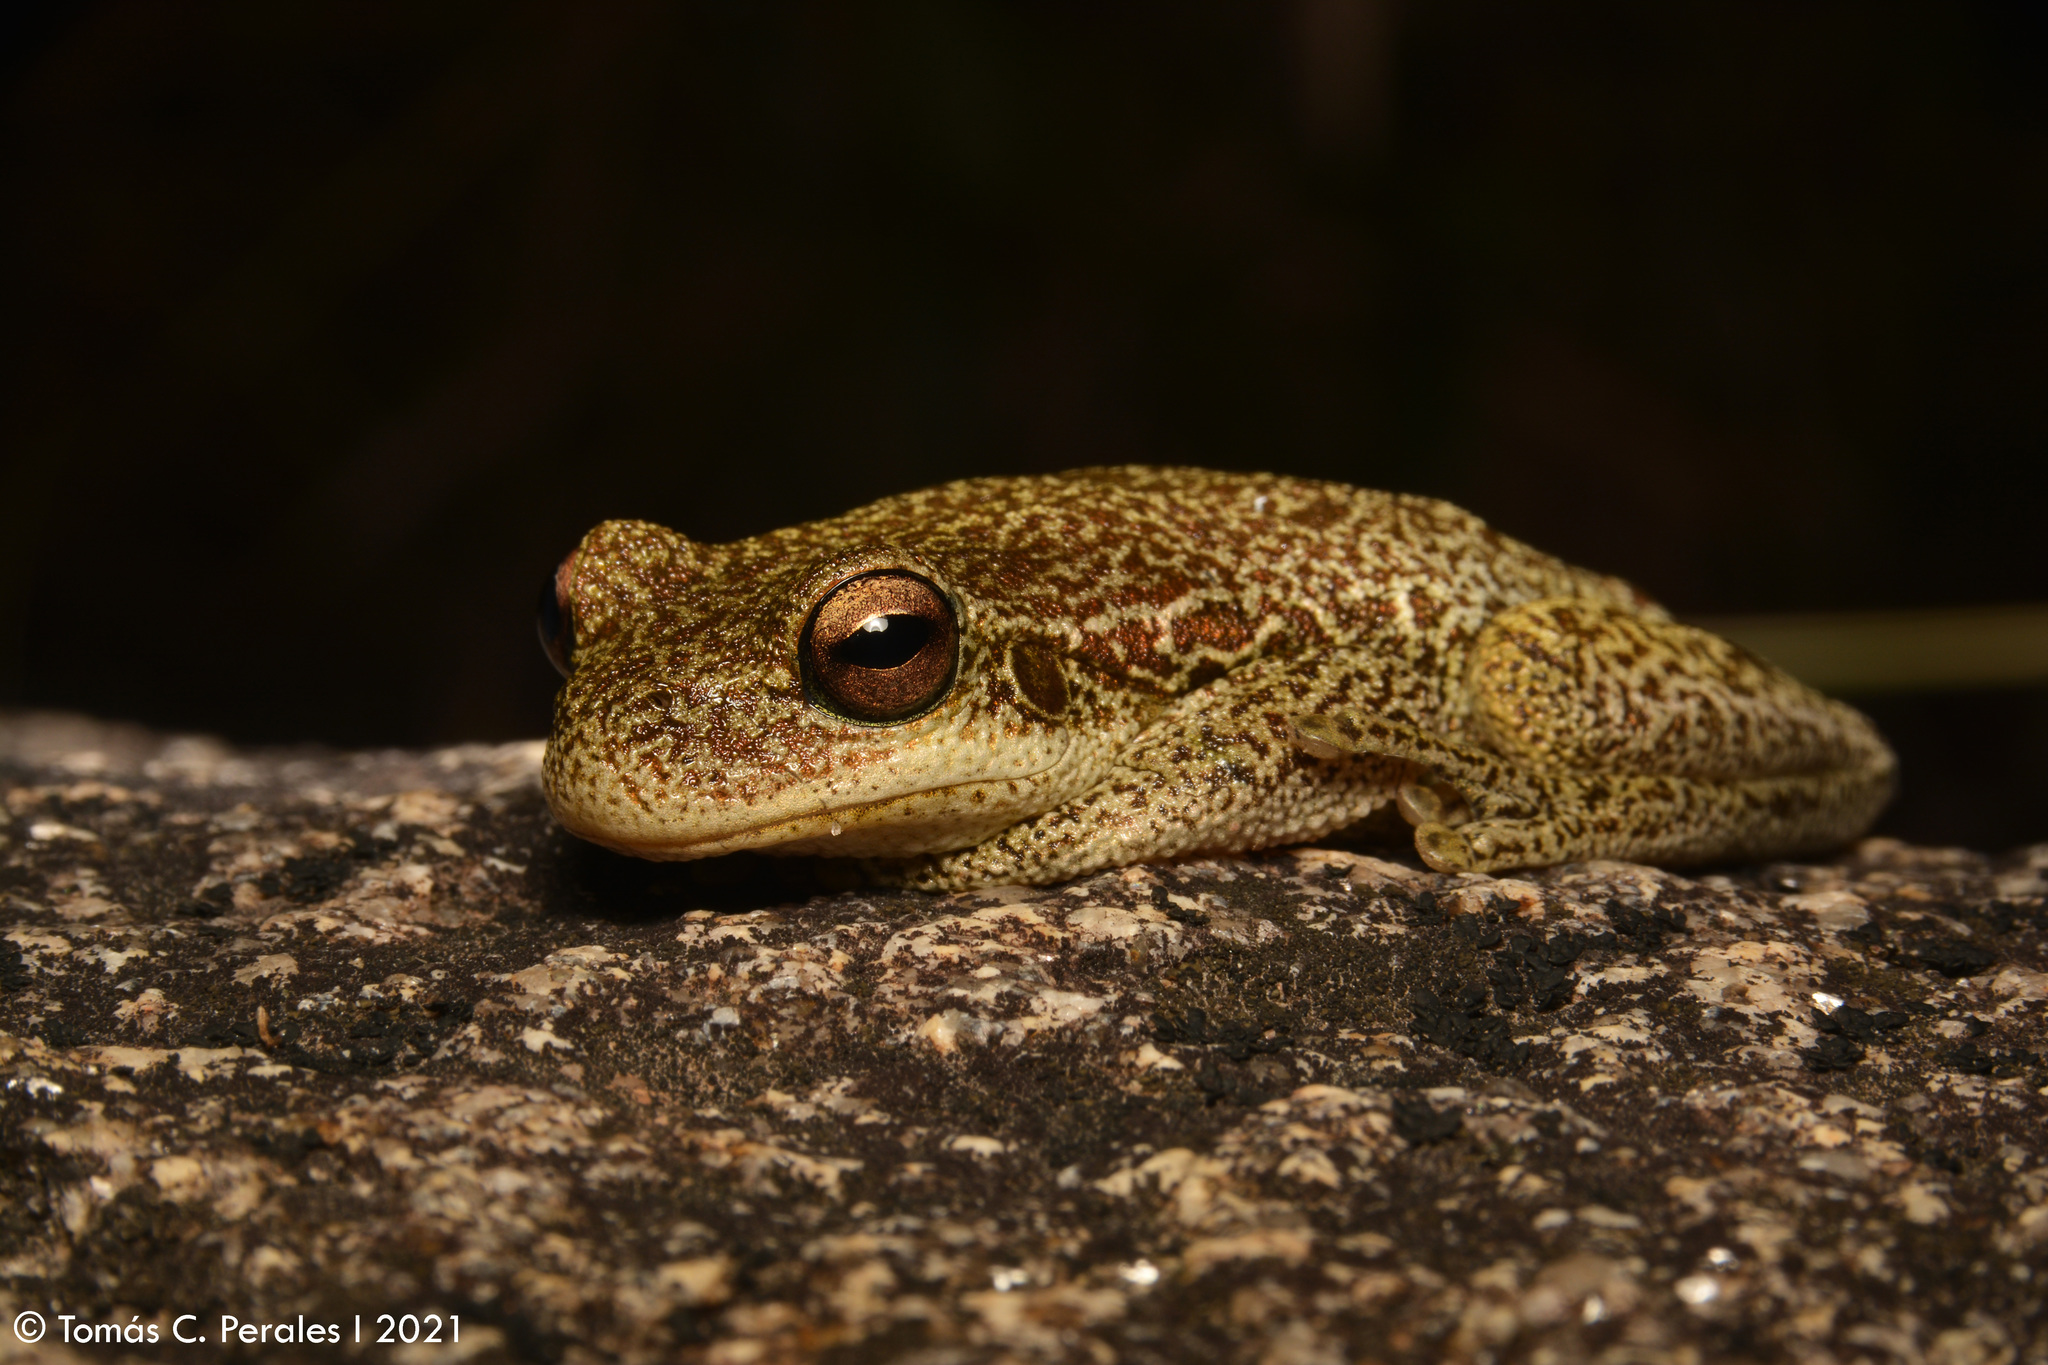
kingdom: Animalia
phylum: Chordata
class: Amphibia
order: Anura
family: Hylidae
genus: Boana
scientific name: Boana cordobae
